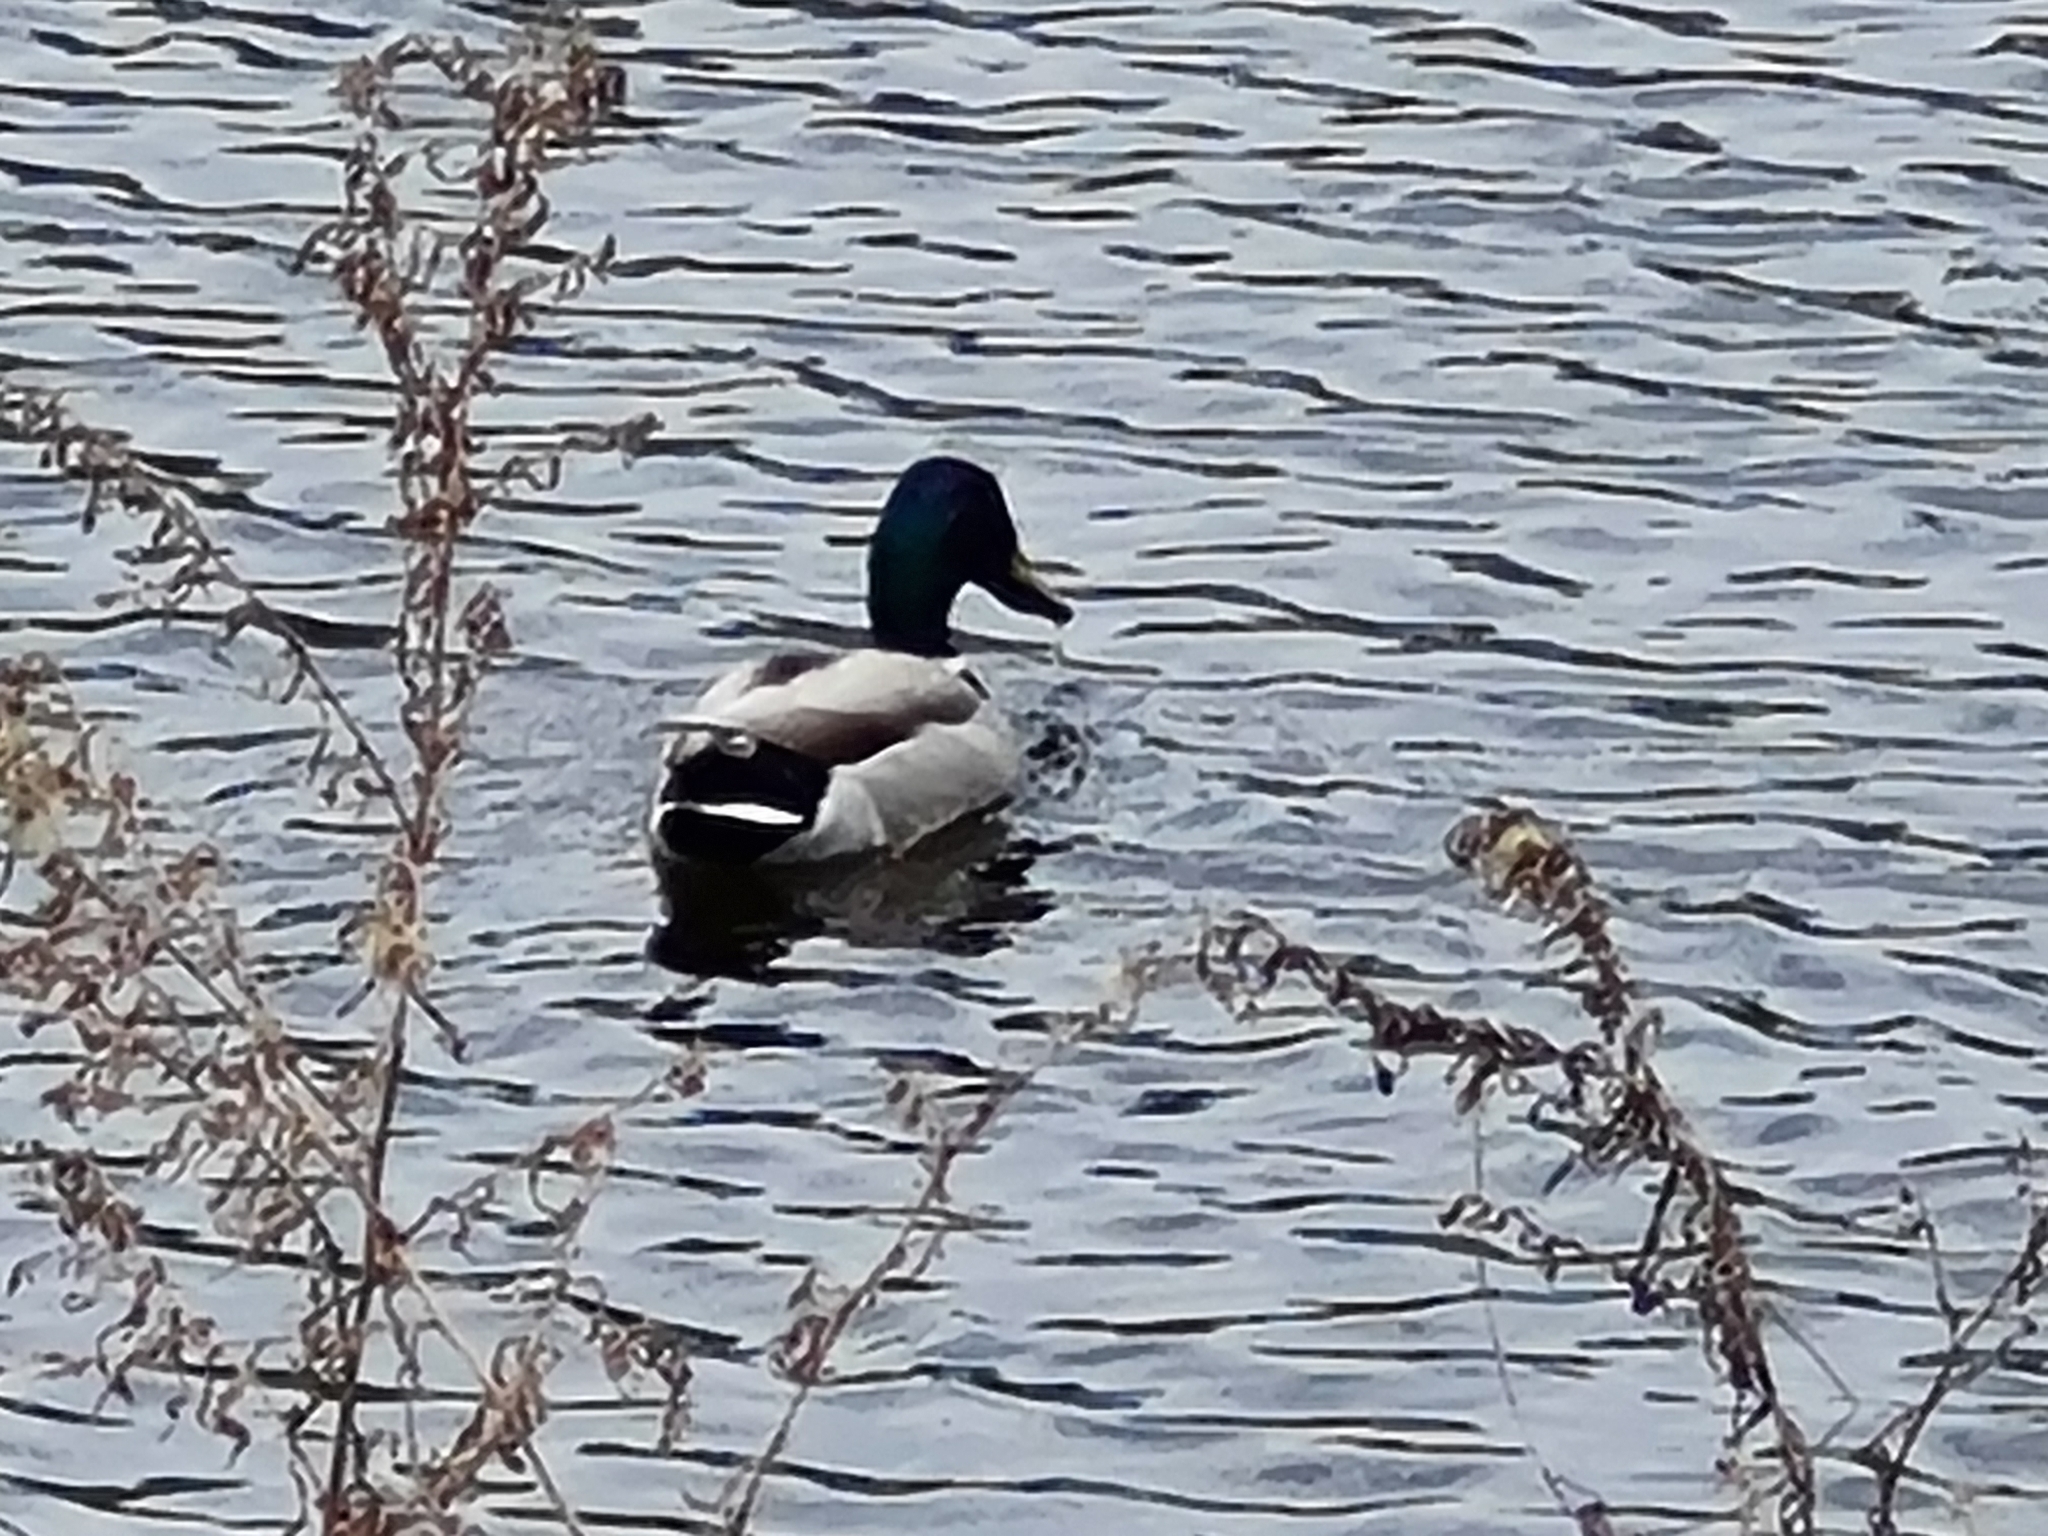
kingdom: Animalia
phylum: Chordata
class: Aves
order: Anseriformes
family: Anatidae
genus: Anas
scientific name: Anas platyrhynchos
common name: Mallard
